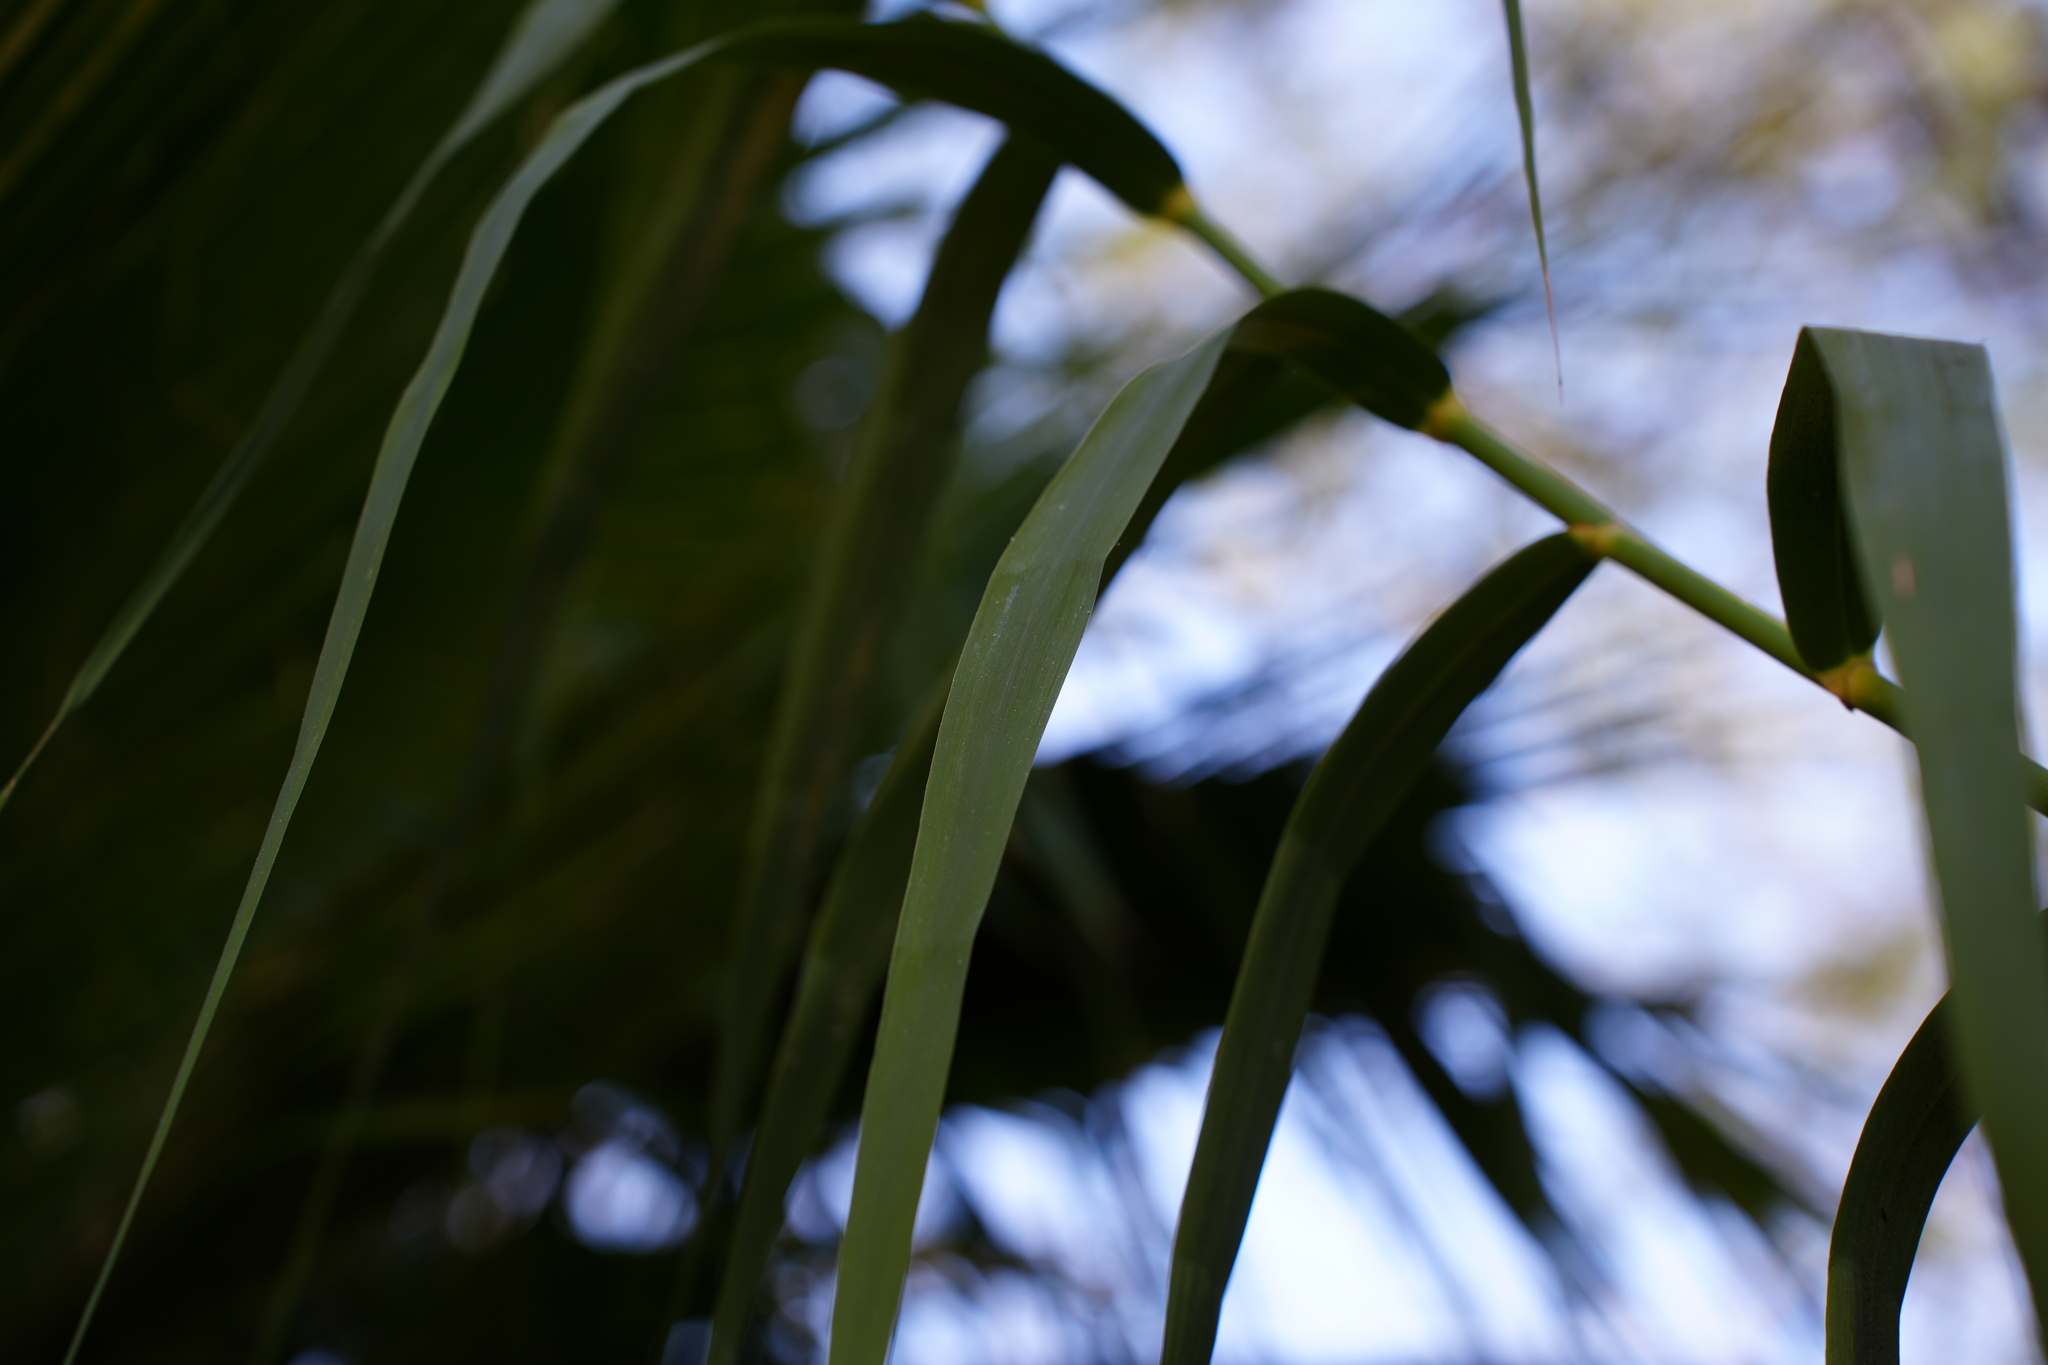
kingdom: Plantae
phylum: Tracheophyta
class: Liliopsida
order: Poales
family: Poaceae
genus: Arundo
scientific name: Arundo donax
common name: Giant reed
